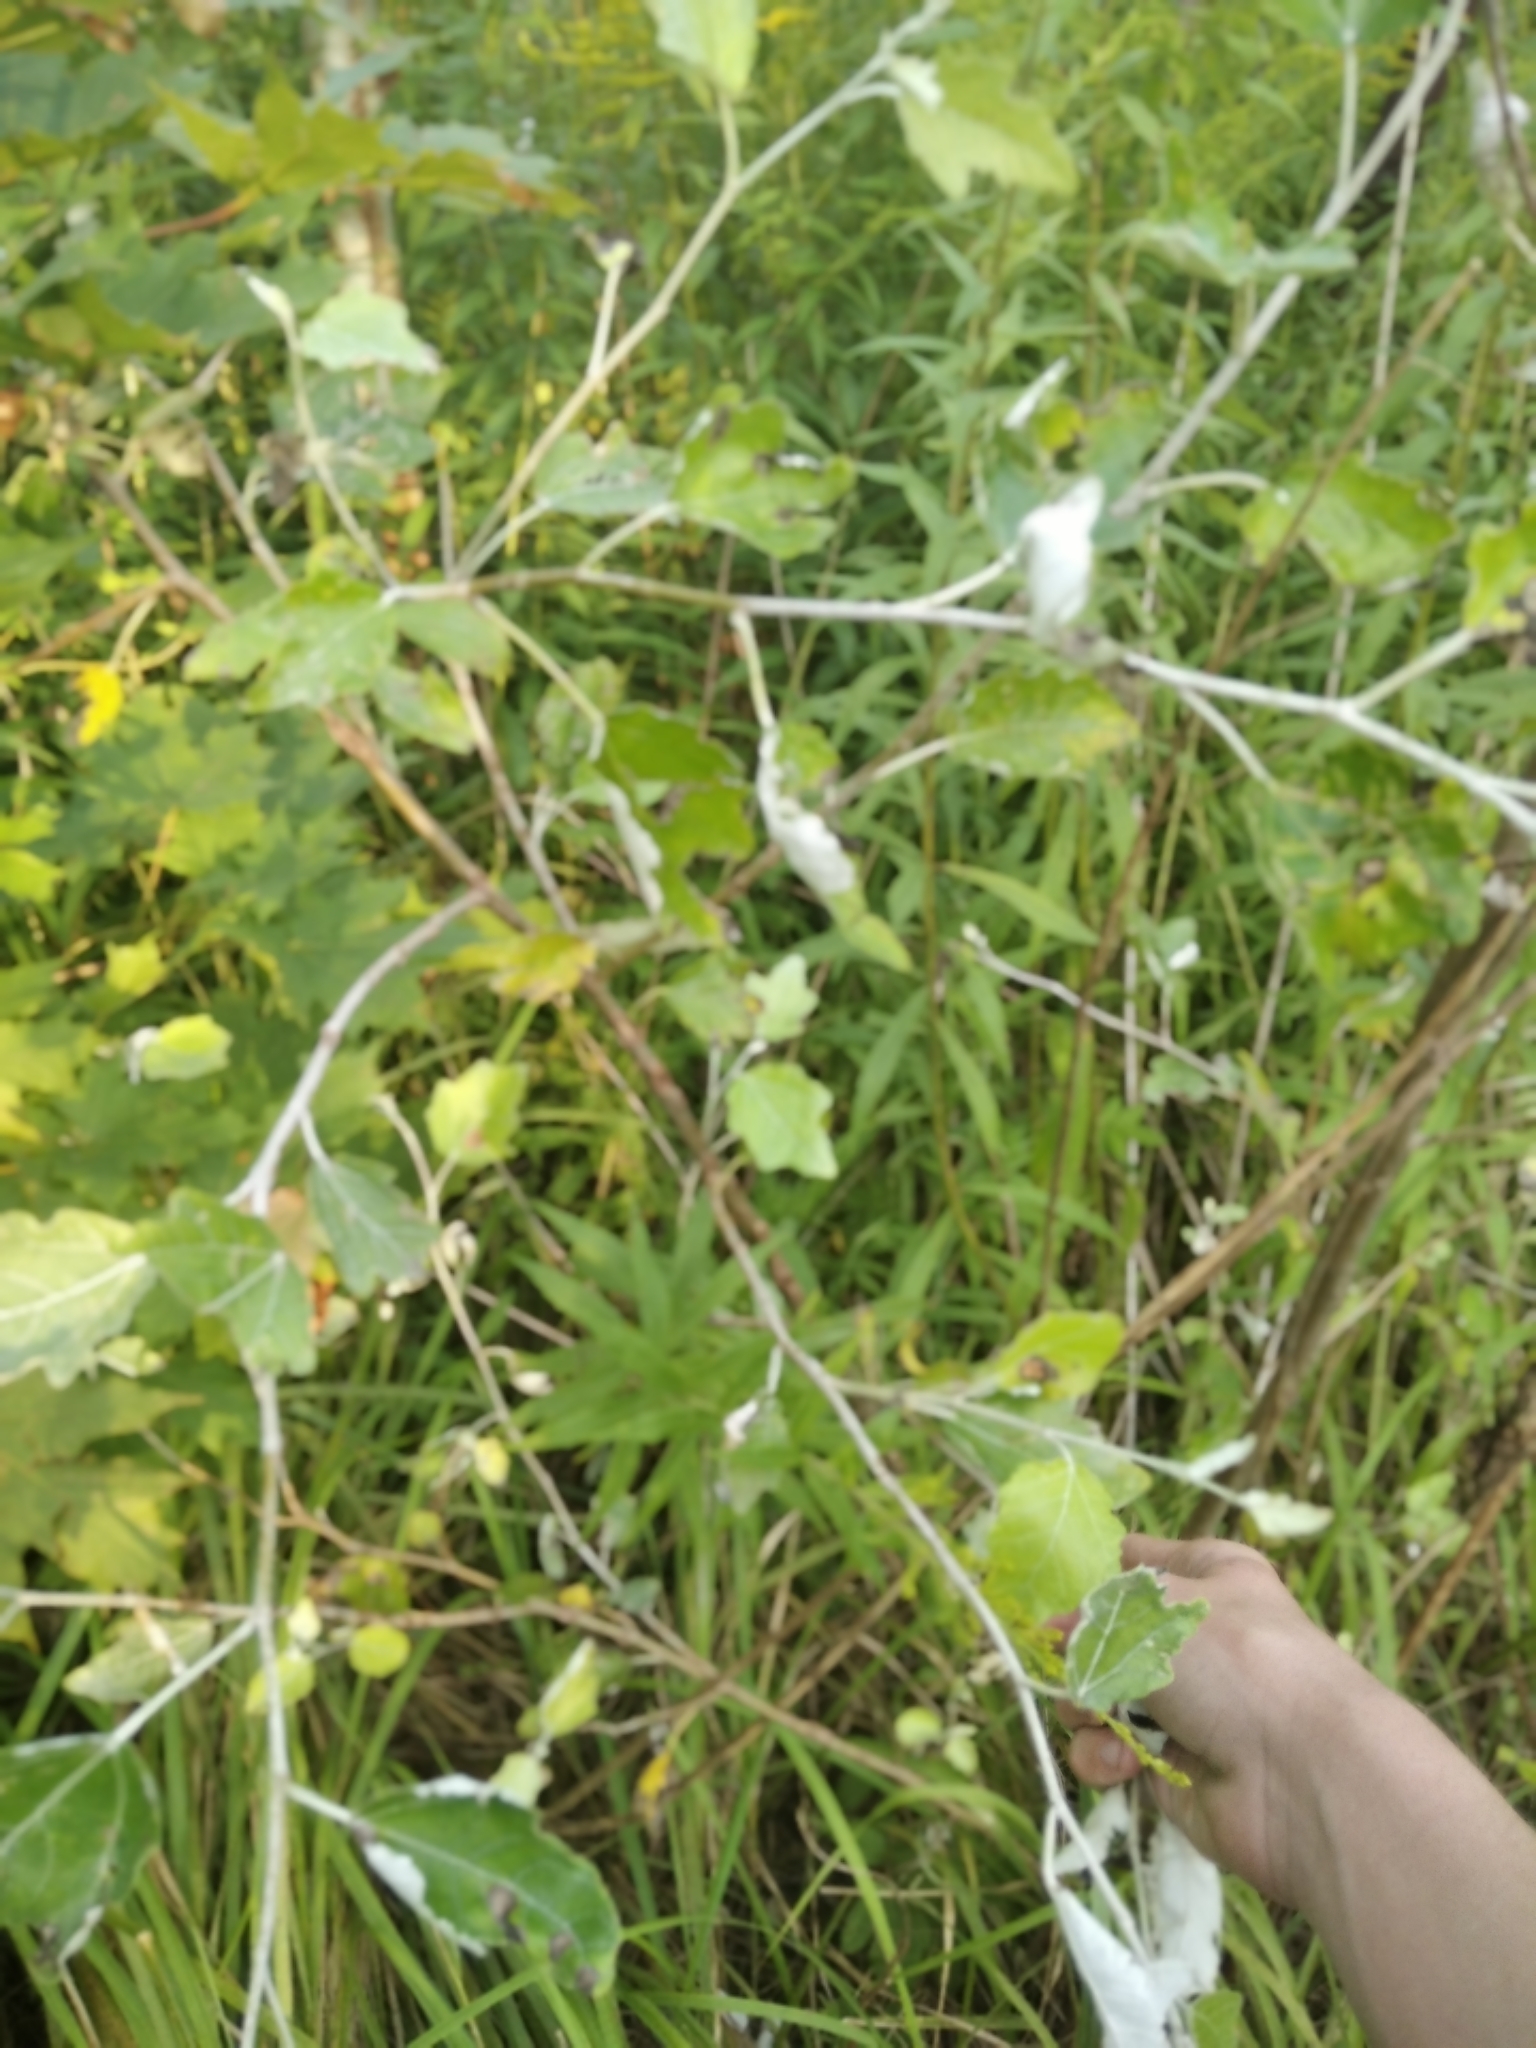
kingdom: Plantae
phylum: Tracheophyta
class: Magnoliopsida
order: Malpighiales
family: Salicaceae
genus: Populus
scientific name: Populus alba
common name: White poplar
